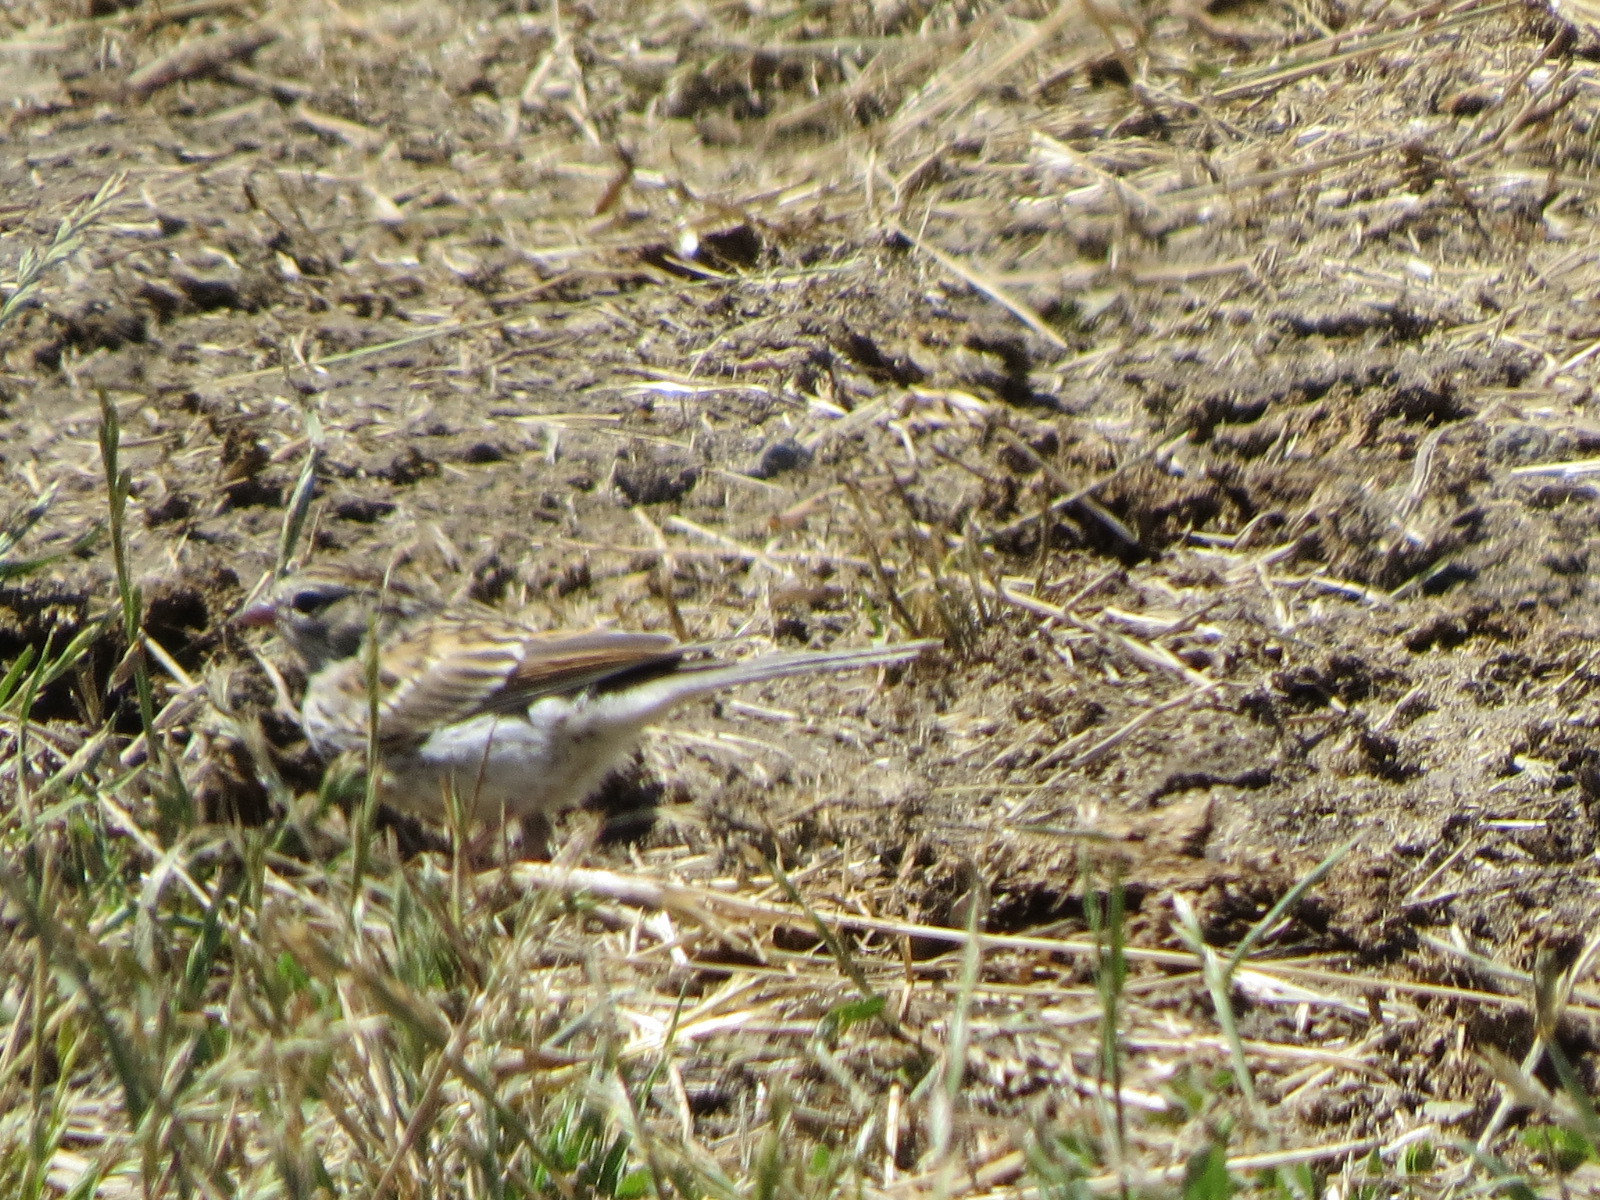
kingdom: Animalia
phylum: Chordata
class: Aves
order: Passeriformes
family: Passerellidae
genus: Spizella
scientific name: Spizella passerina
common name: Chipping sparrow
